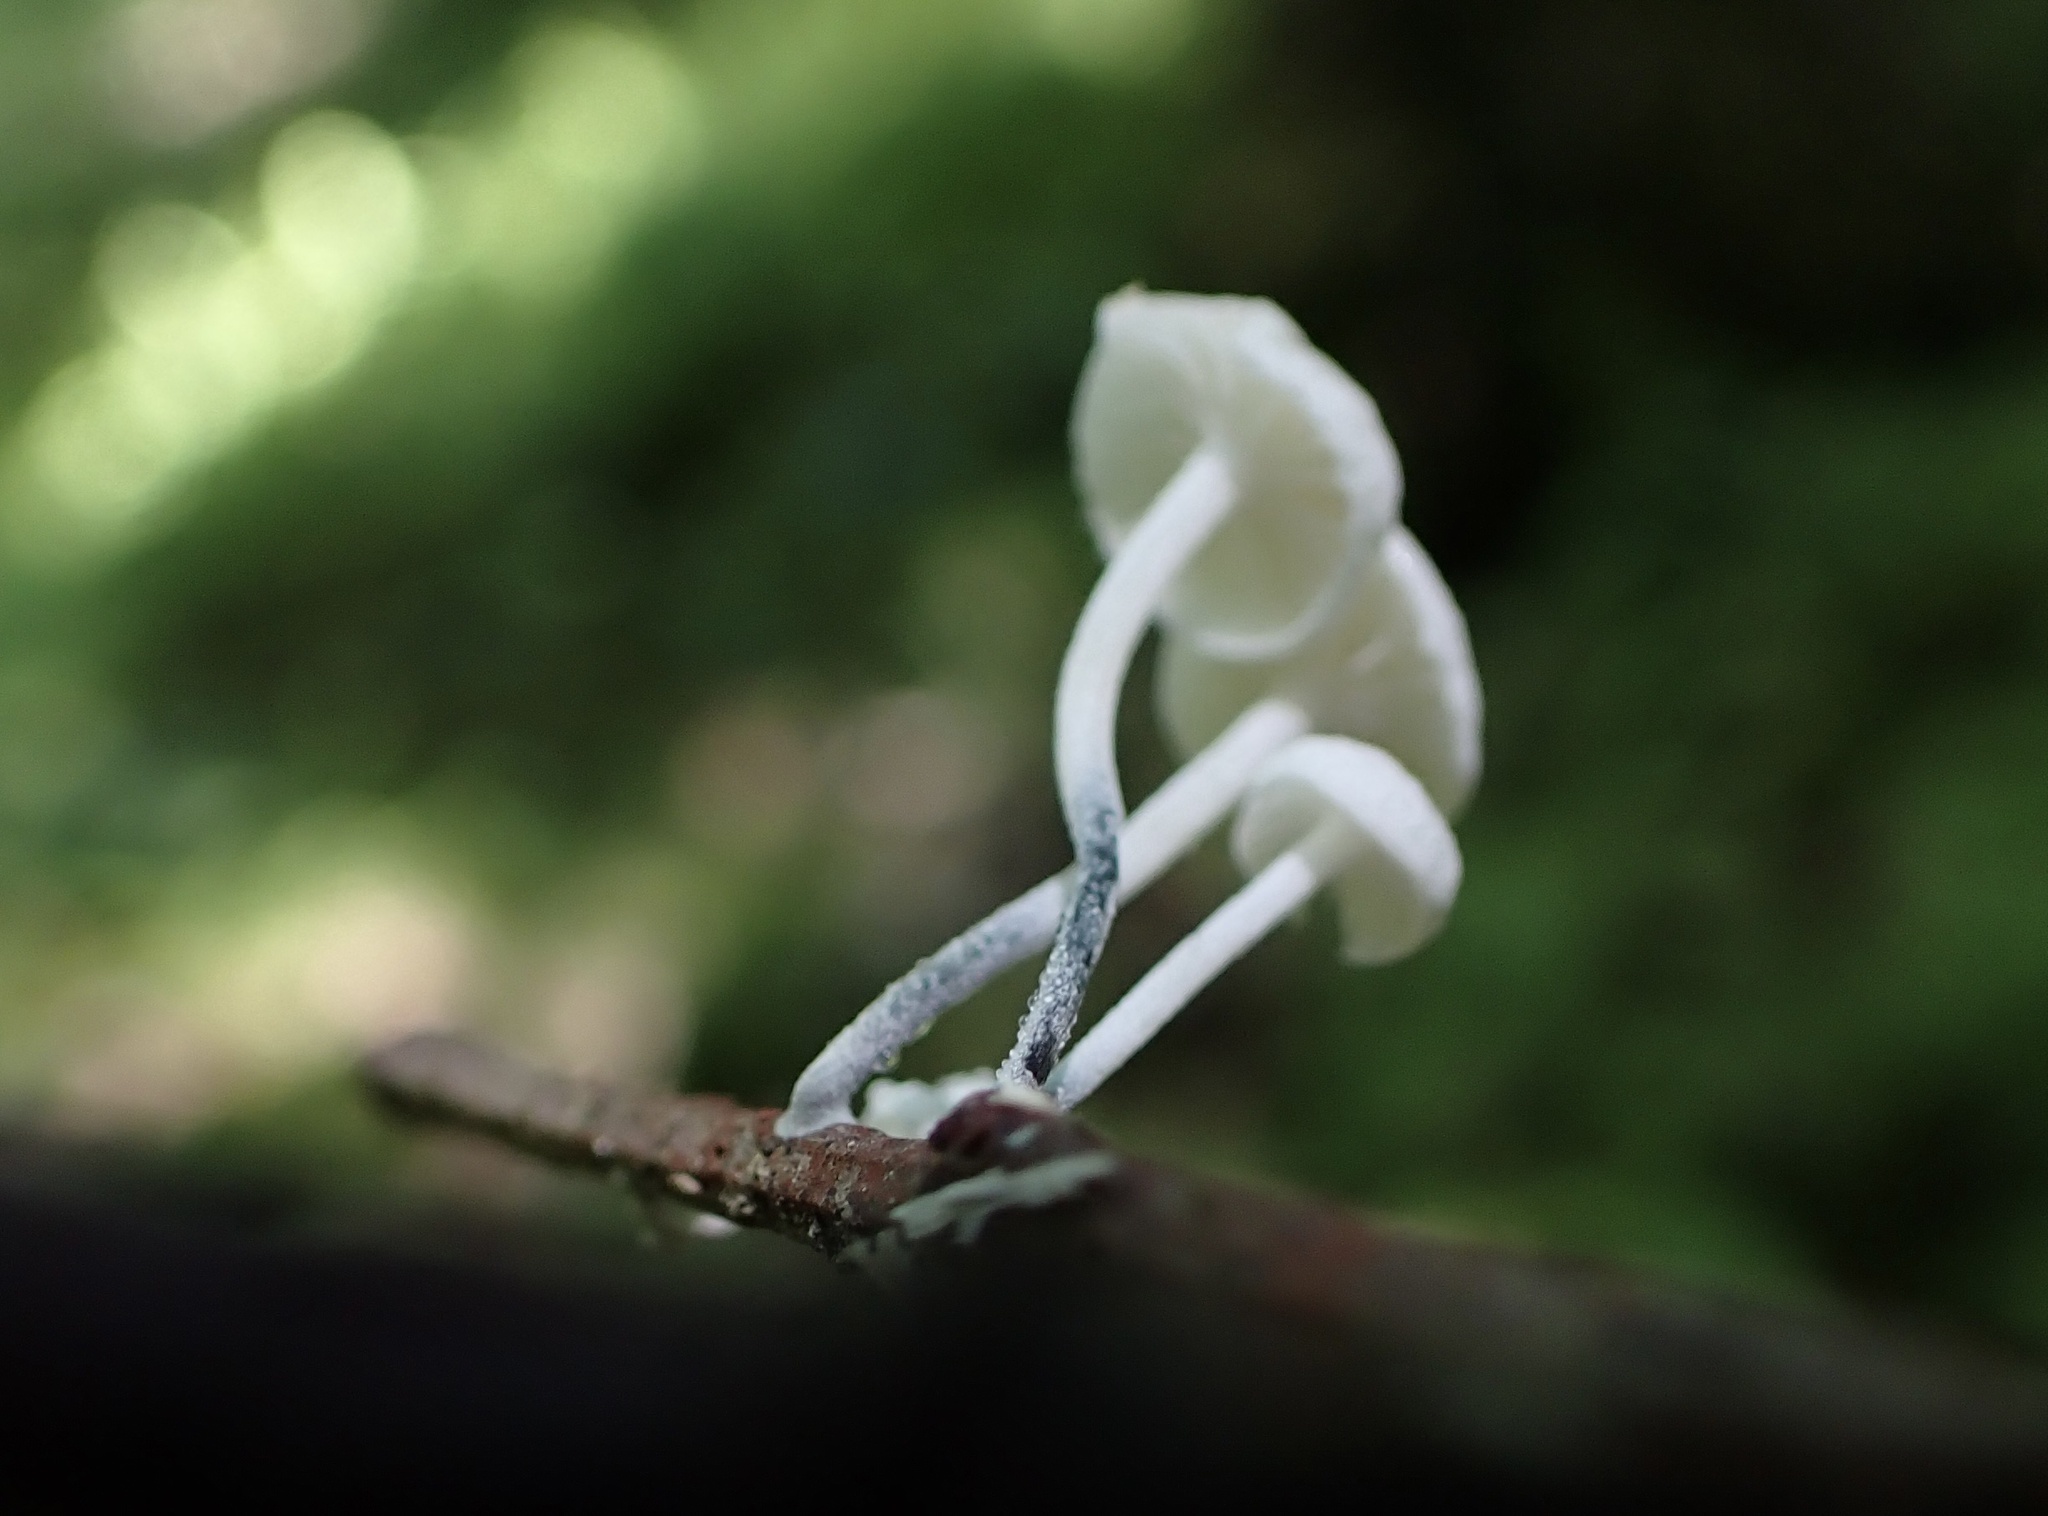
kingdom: Fungi
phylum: Basidiomycota
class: Agaricomycetes
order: Agaricales
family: Marasmiaceae
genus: Tetrapyrgos
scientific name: Tetrapyrgos nigripes
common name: Black-stalked marasmius
